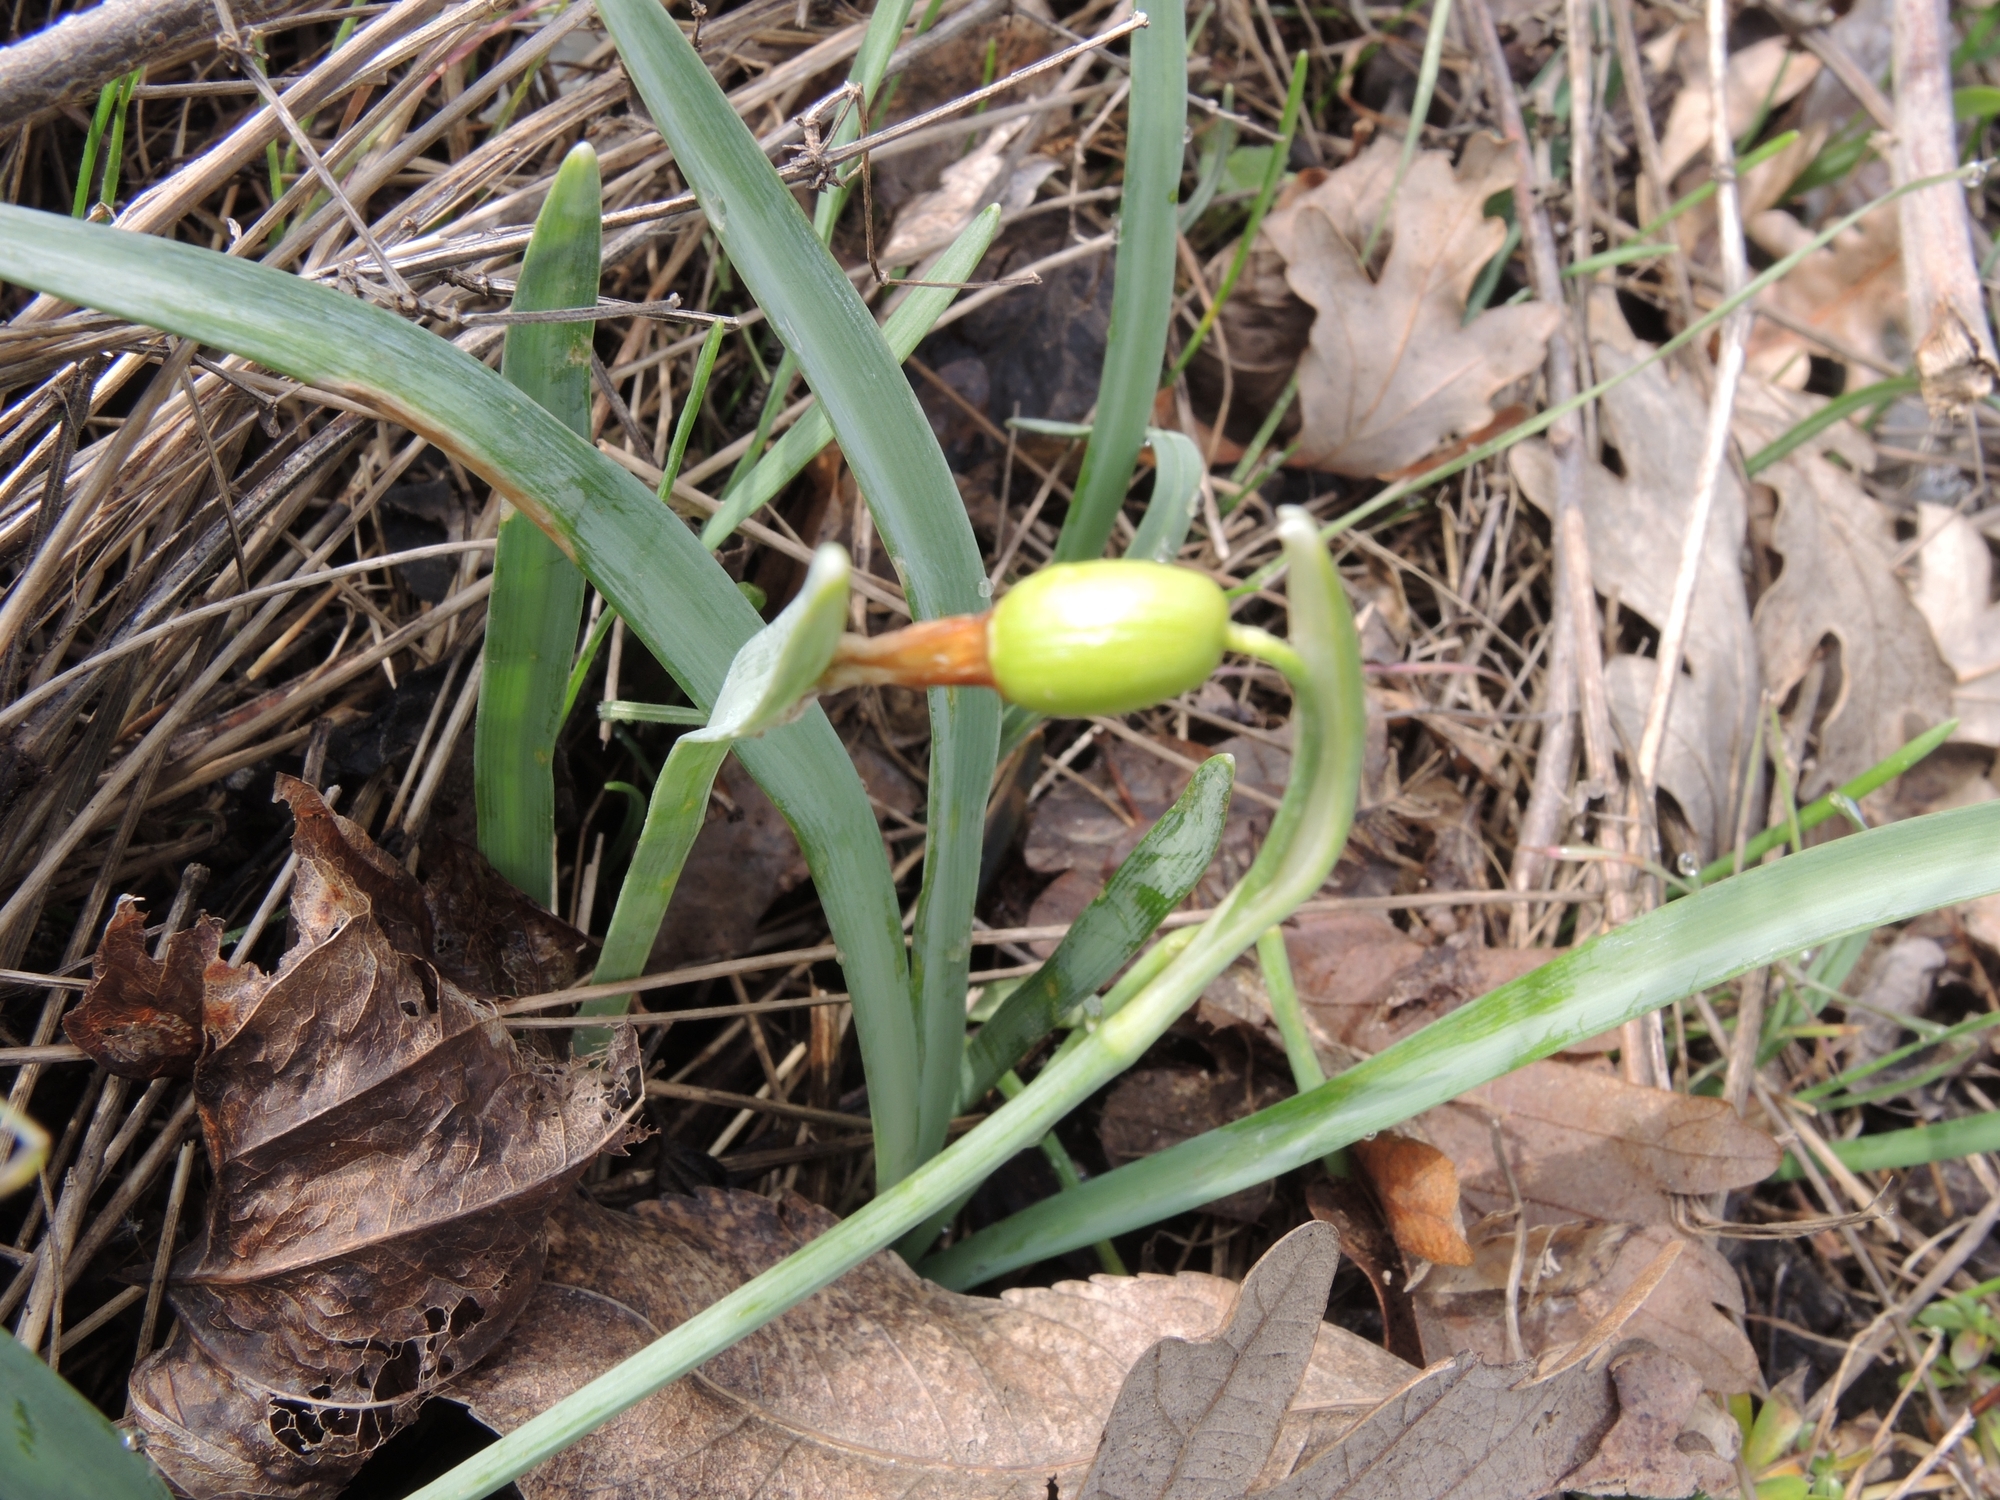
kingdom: Plantae
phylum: Tracheophyta
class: Liliopsida
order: Asparagales
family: Amaryllidaceae
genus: Galanthus
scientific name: Galanthus nivalis
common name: Snowdrop
